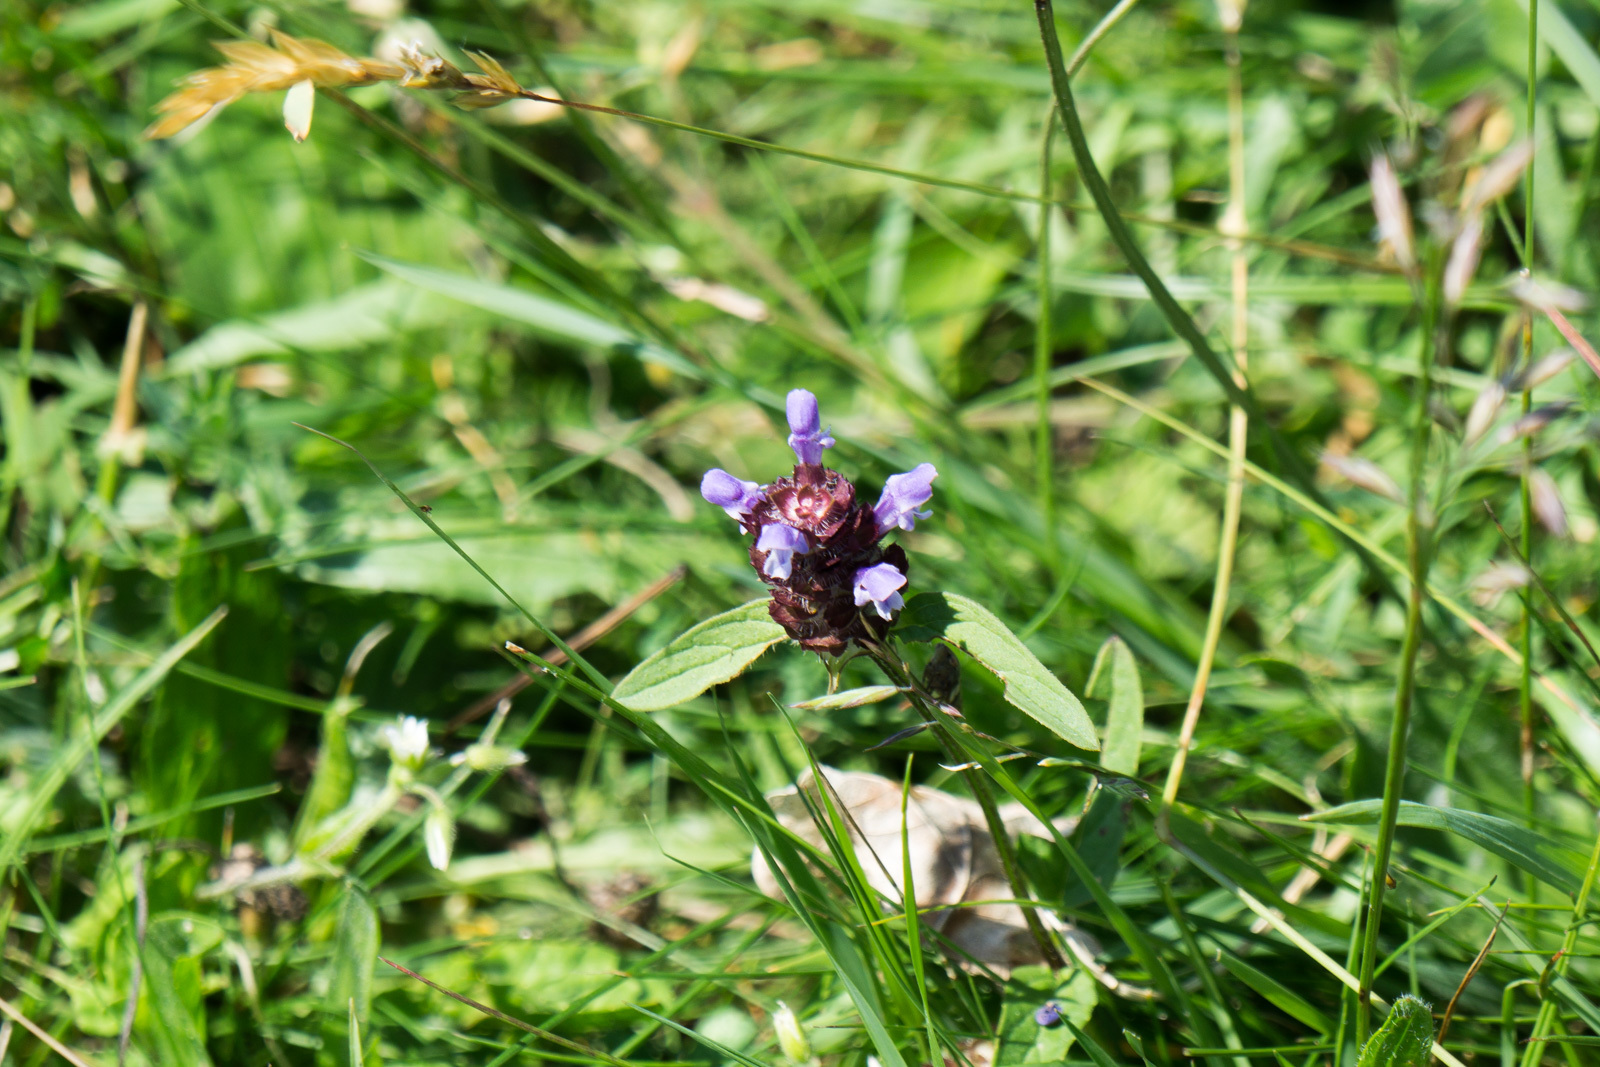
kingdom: Plantae
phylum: Tracheophyta
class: Magnoliopsida
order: Lamiales
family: Lamiaceae
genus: Prunella
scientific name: Prunella vulgaris
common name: Heal-all
